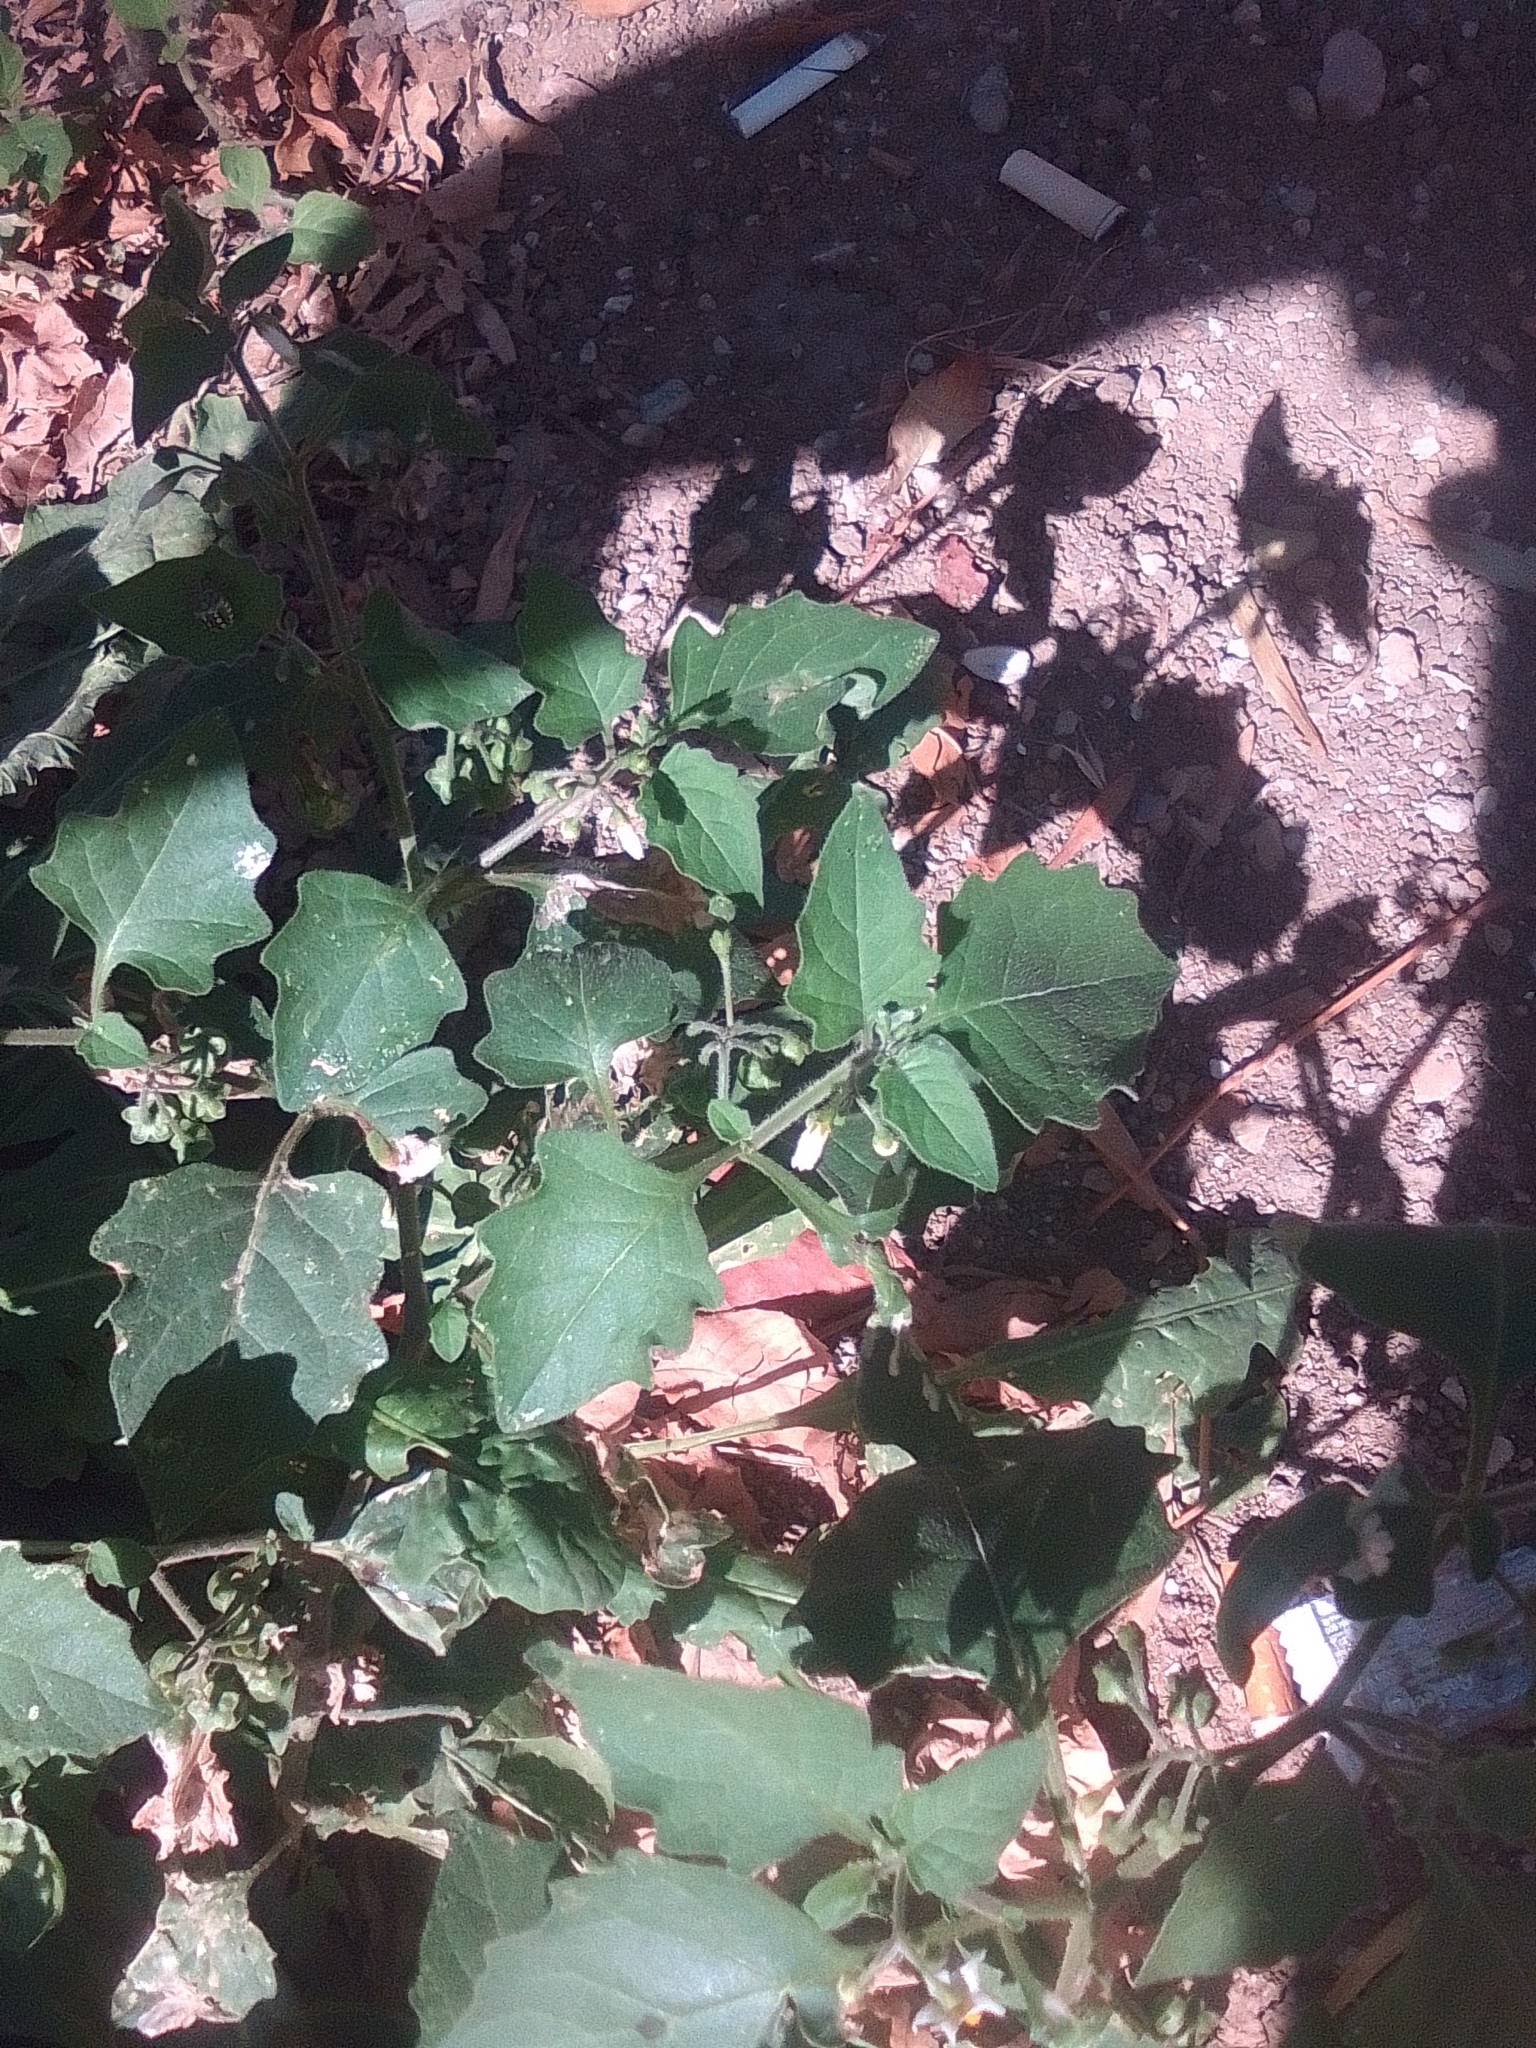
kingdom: Plantae
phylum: Tracheophyta
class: Magnoliopsida
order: Solanales
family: Solanaceae
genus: Solanum
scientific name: Solanum nigrum
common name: Black nightshade
